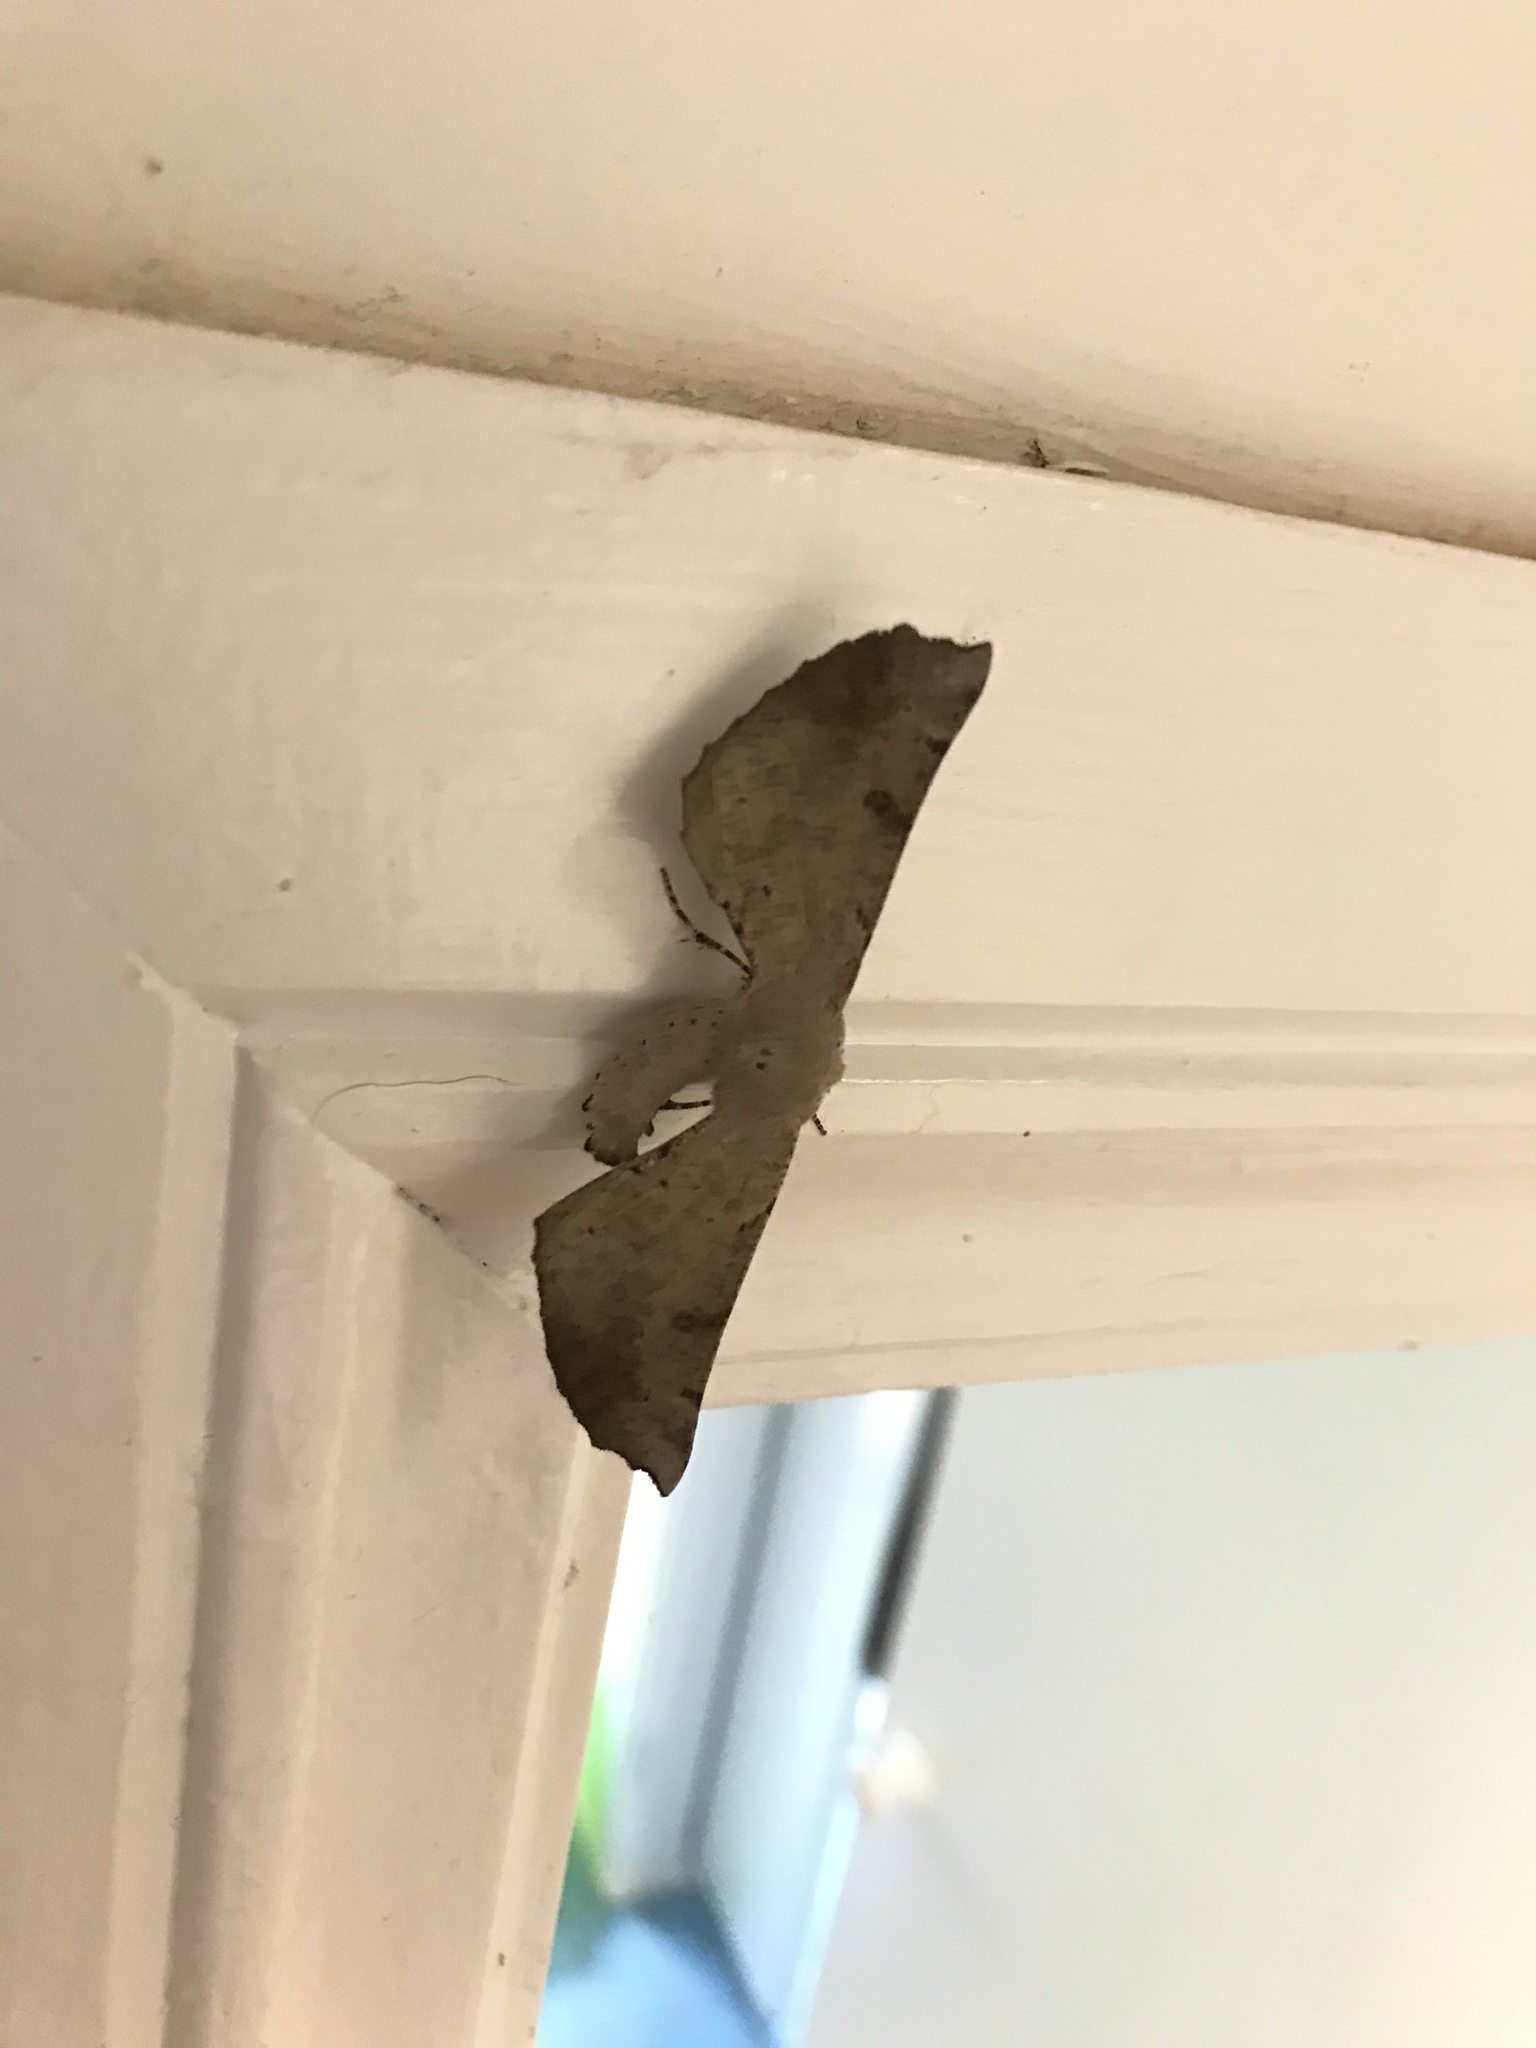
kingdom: Animalia
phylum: Arthropoda
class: Insecta
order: Lepidoptera
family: Geometridae
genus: Circopetes
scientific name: Circopetes obtusata
